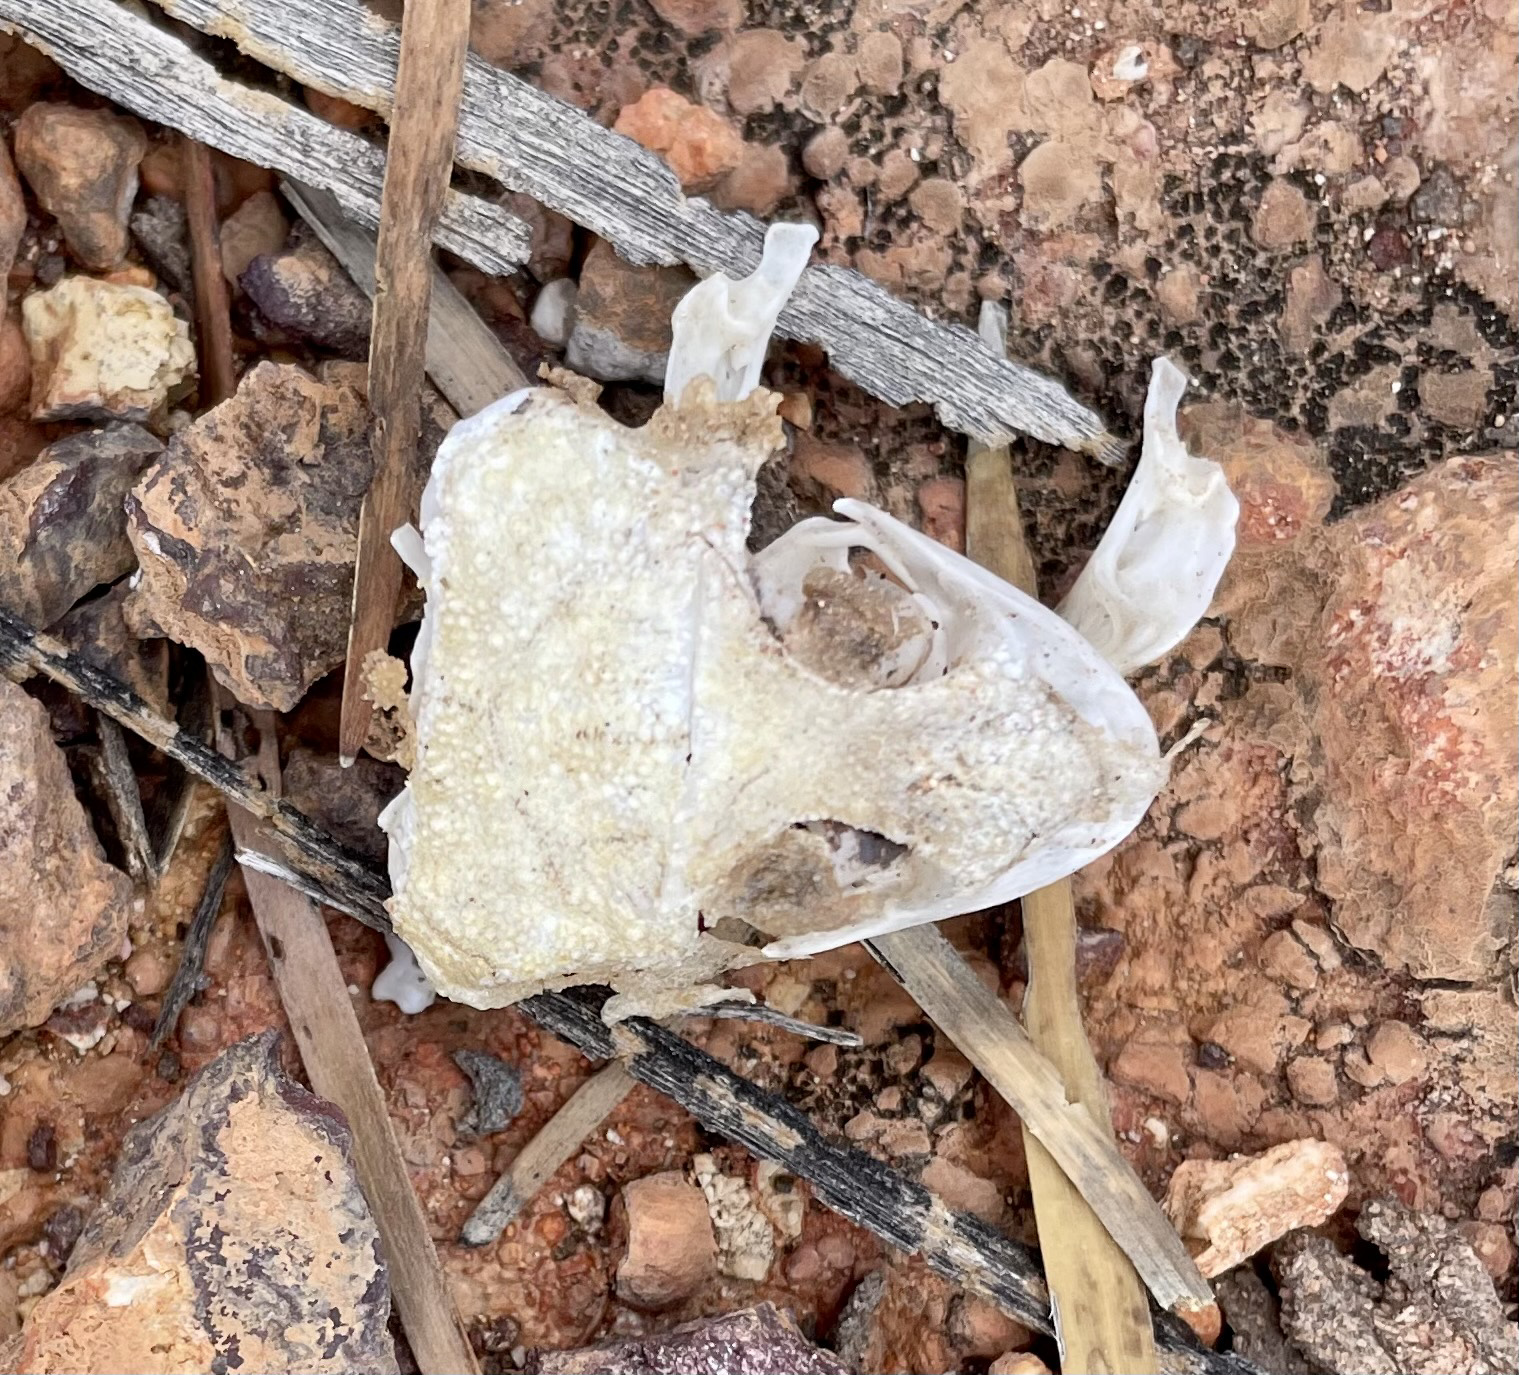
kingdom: Animalia
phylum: Chordata
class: Squamata
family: Carphodactylidae
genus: Nephrurus
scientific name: Nephrurus
